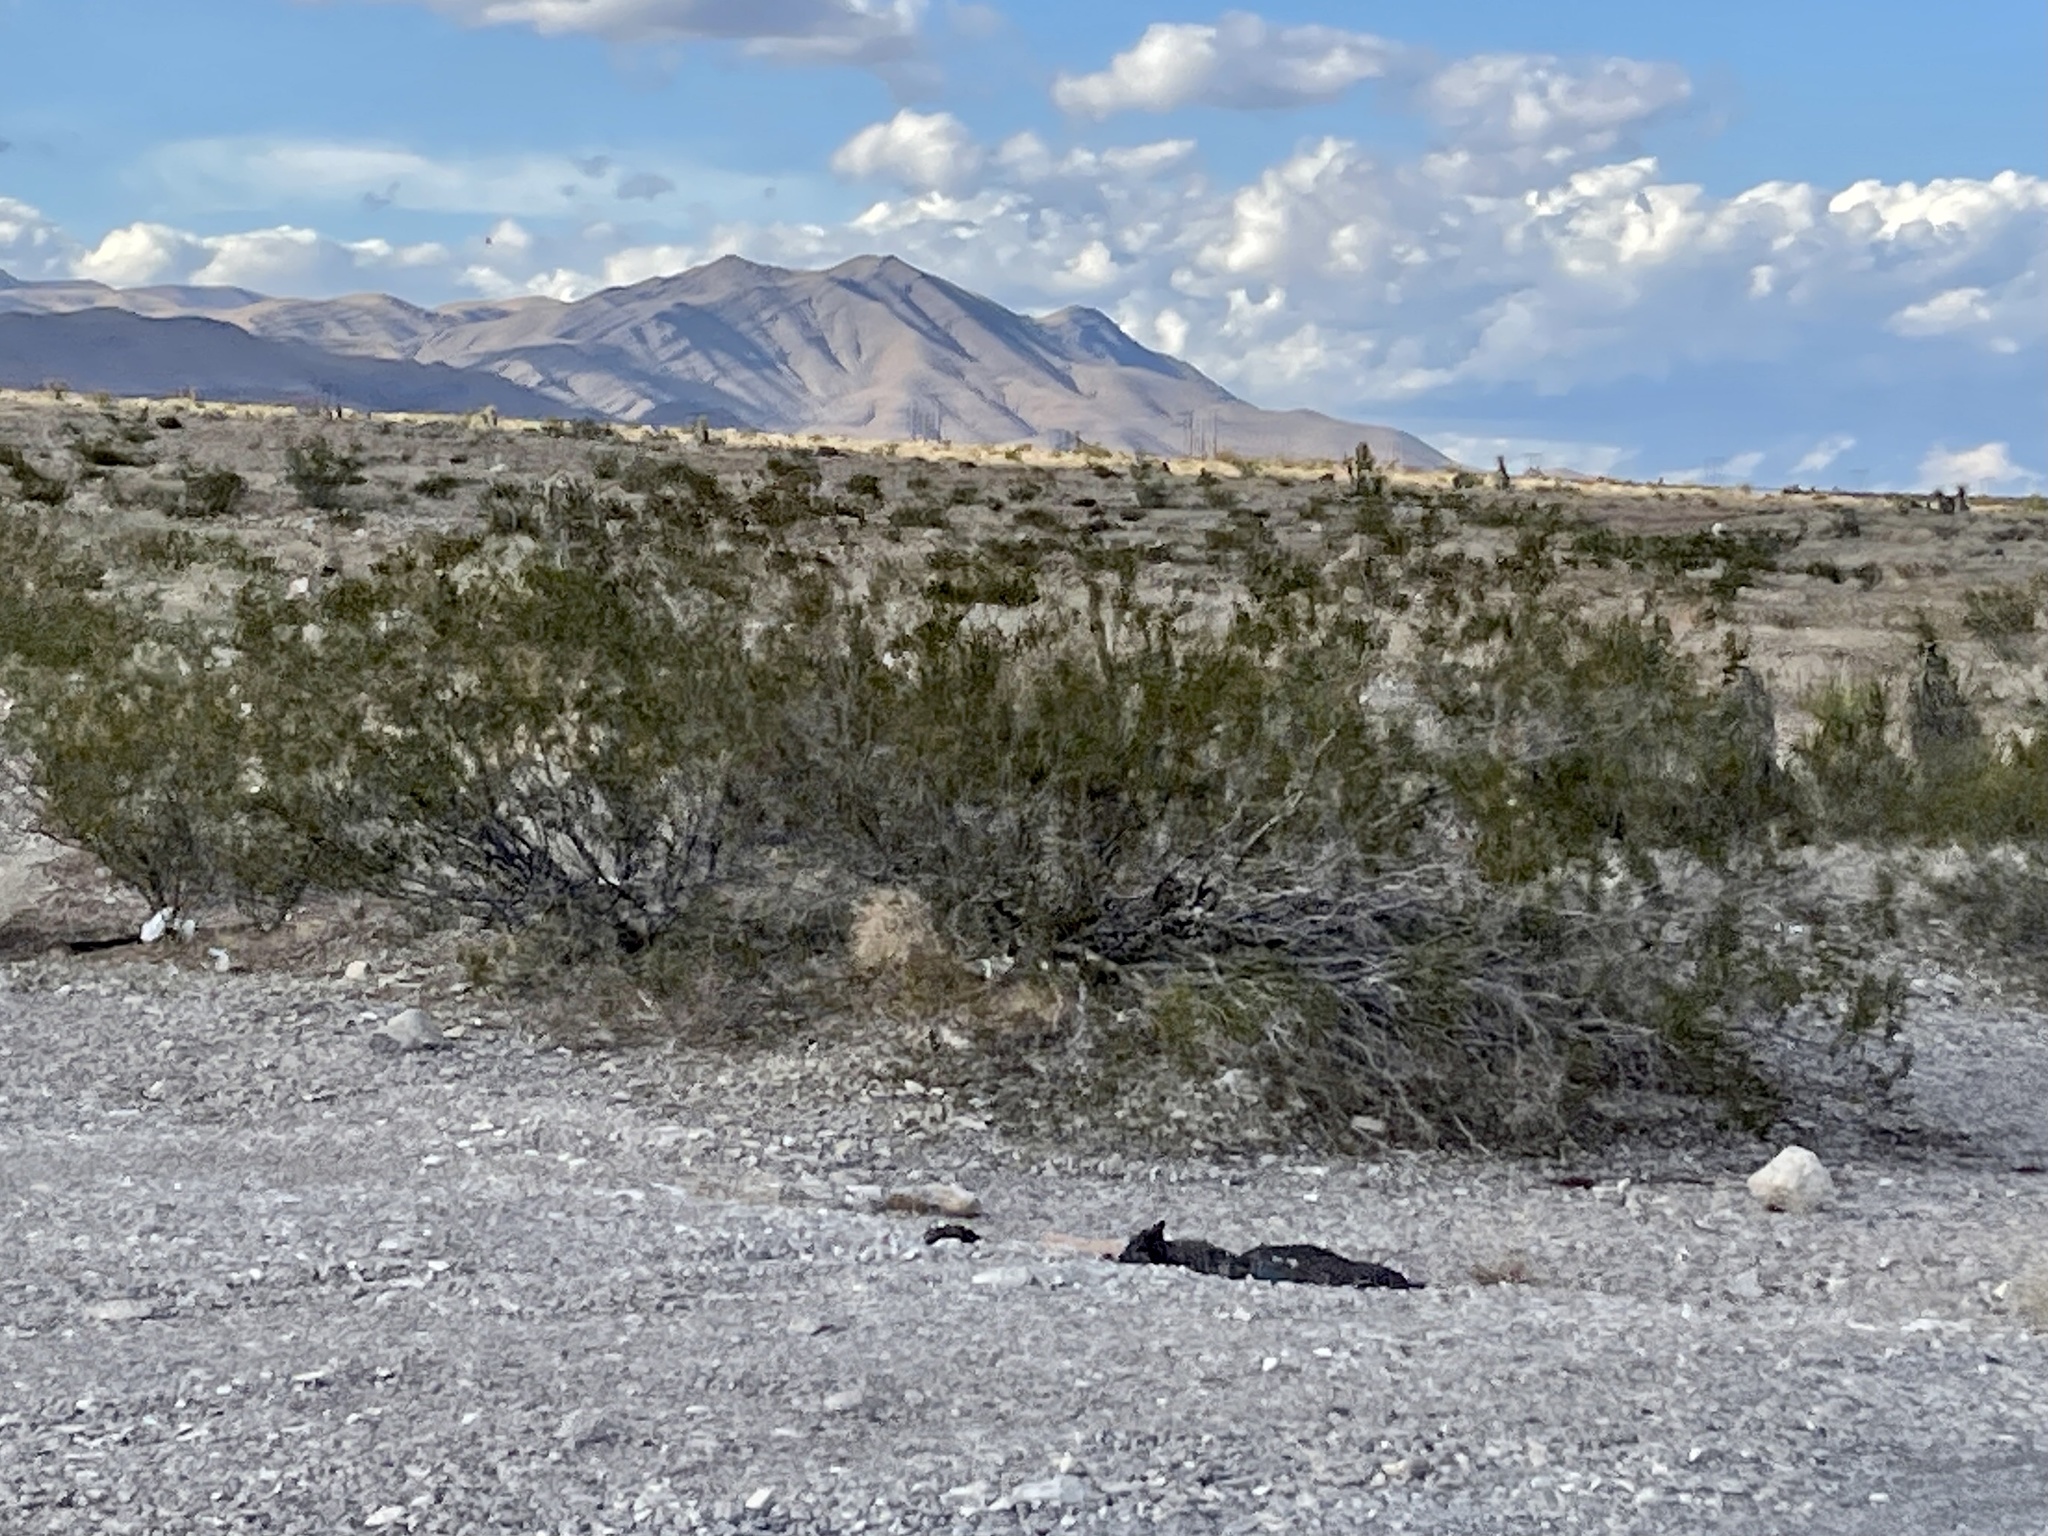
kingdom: Plantae
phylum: Tracheophyta
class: Magnoliopsida
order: Zygophyllales
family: Zygophyllaceae
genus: Larrea
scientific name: Larrea tridentata
